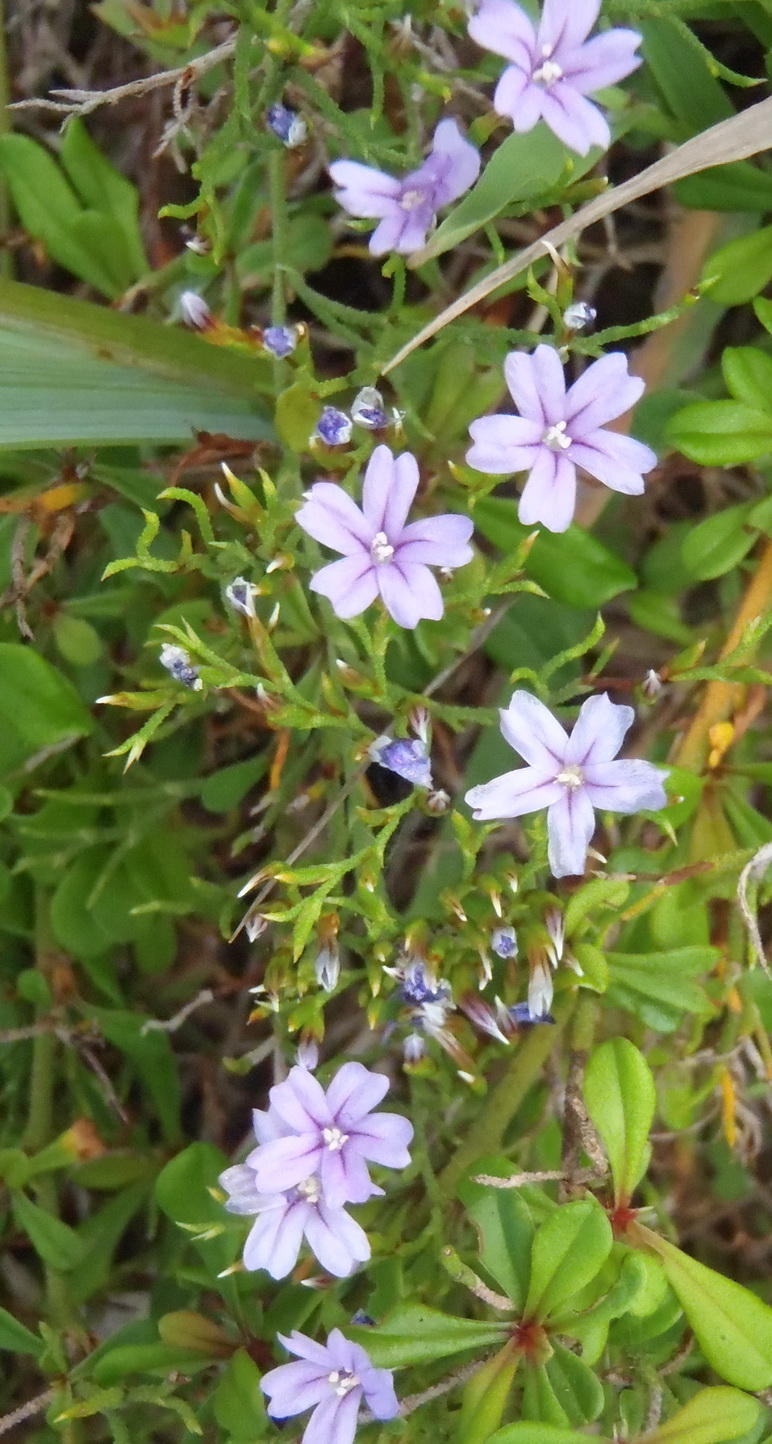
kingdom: Plantae
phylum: Tracheophyta
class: Magnoliopsida
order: Caryophyllales
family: Plumbaginaceae
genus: Limonium
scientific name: Limonium scabrum
